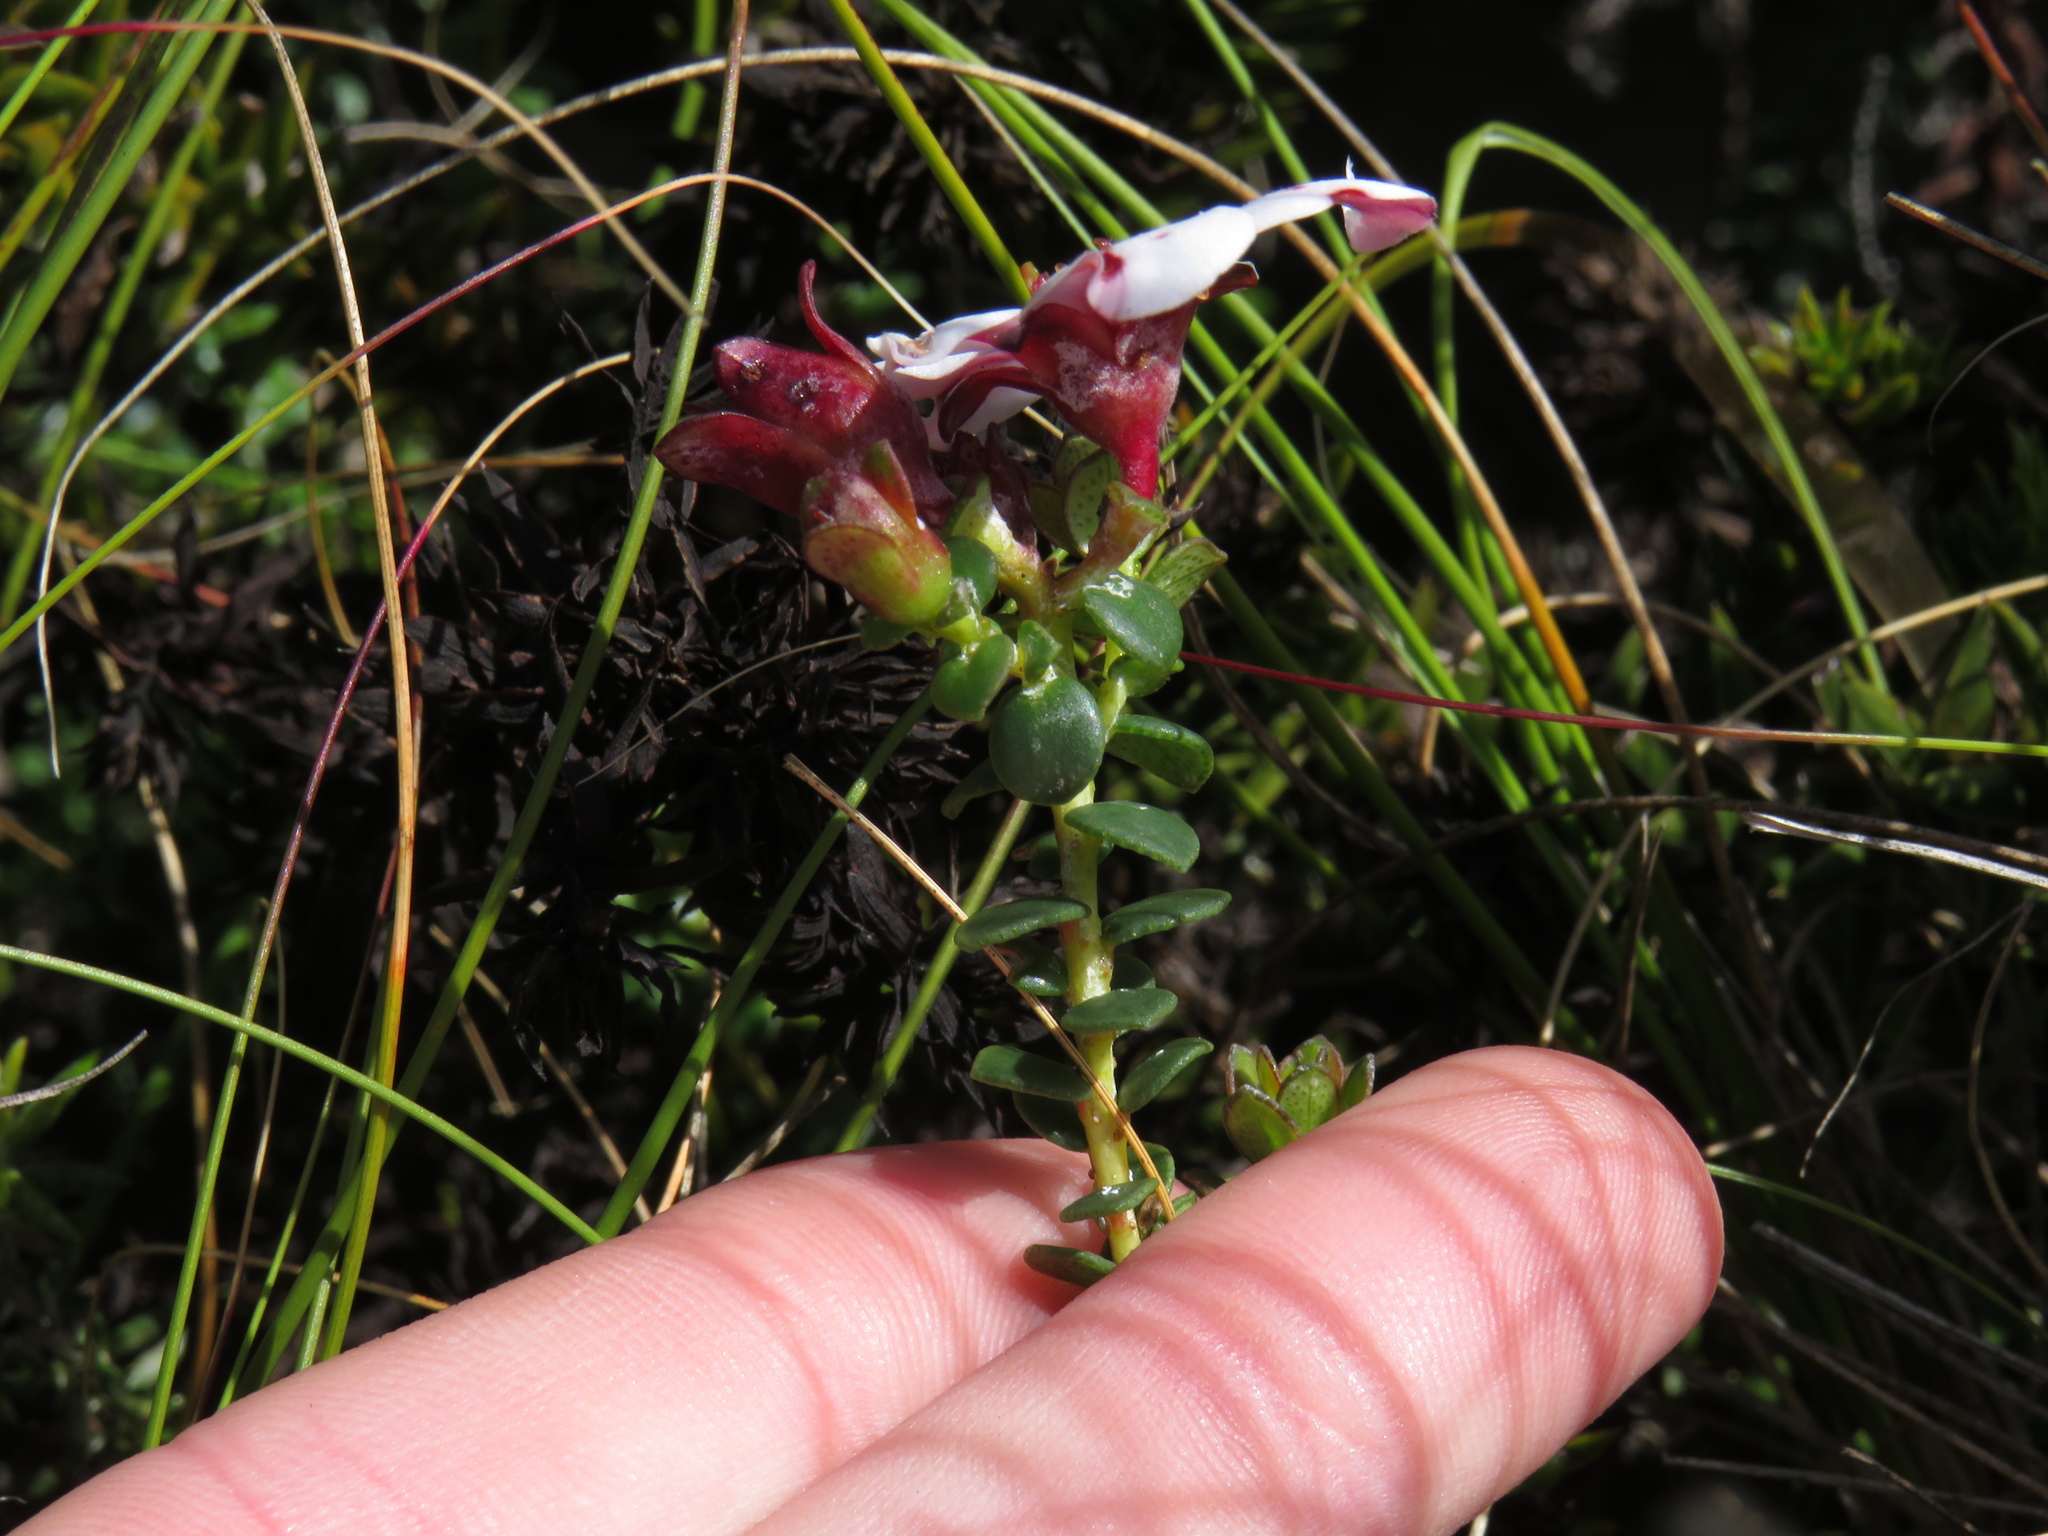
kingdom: Plantae
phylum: Tracheophyta
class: Magnoliopsida
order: Sapindales
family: Rutaceae
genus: Adenandra
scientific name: Adenandra villosa
